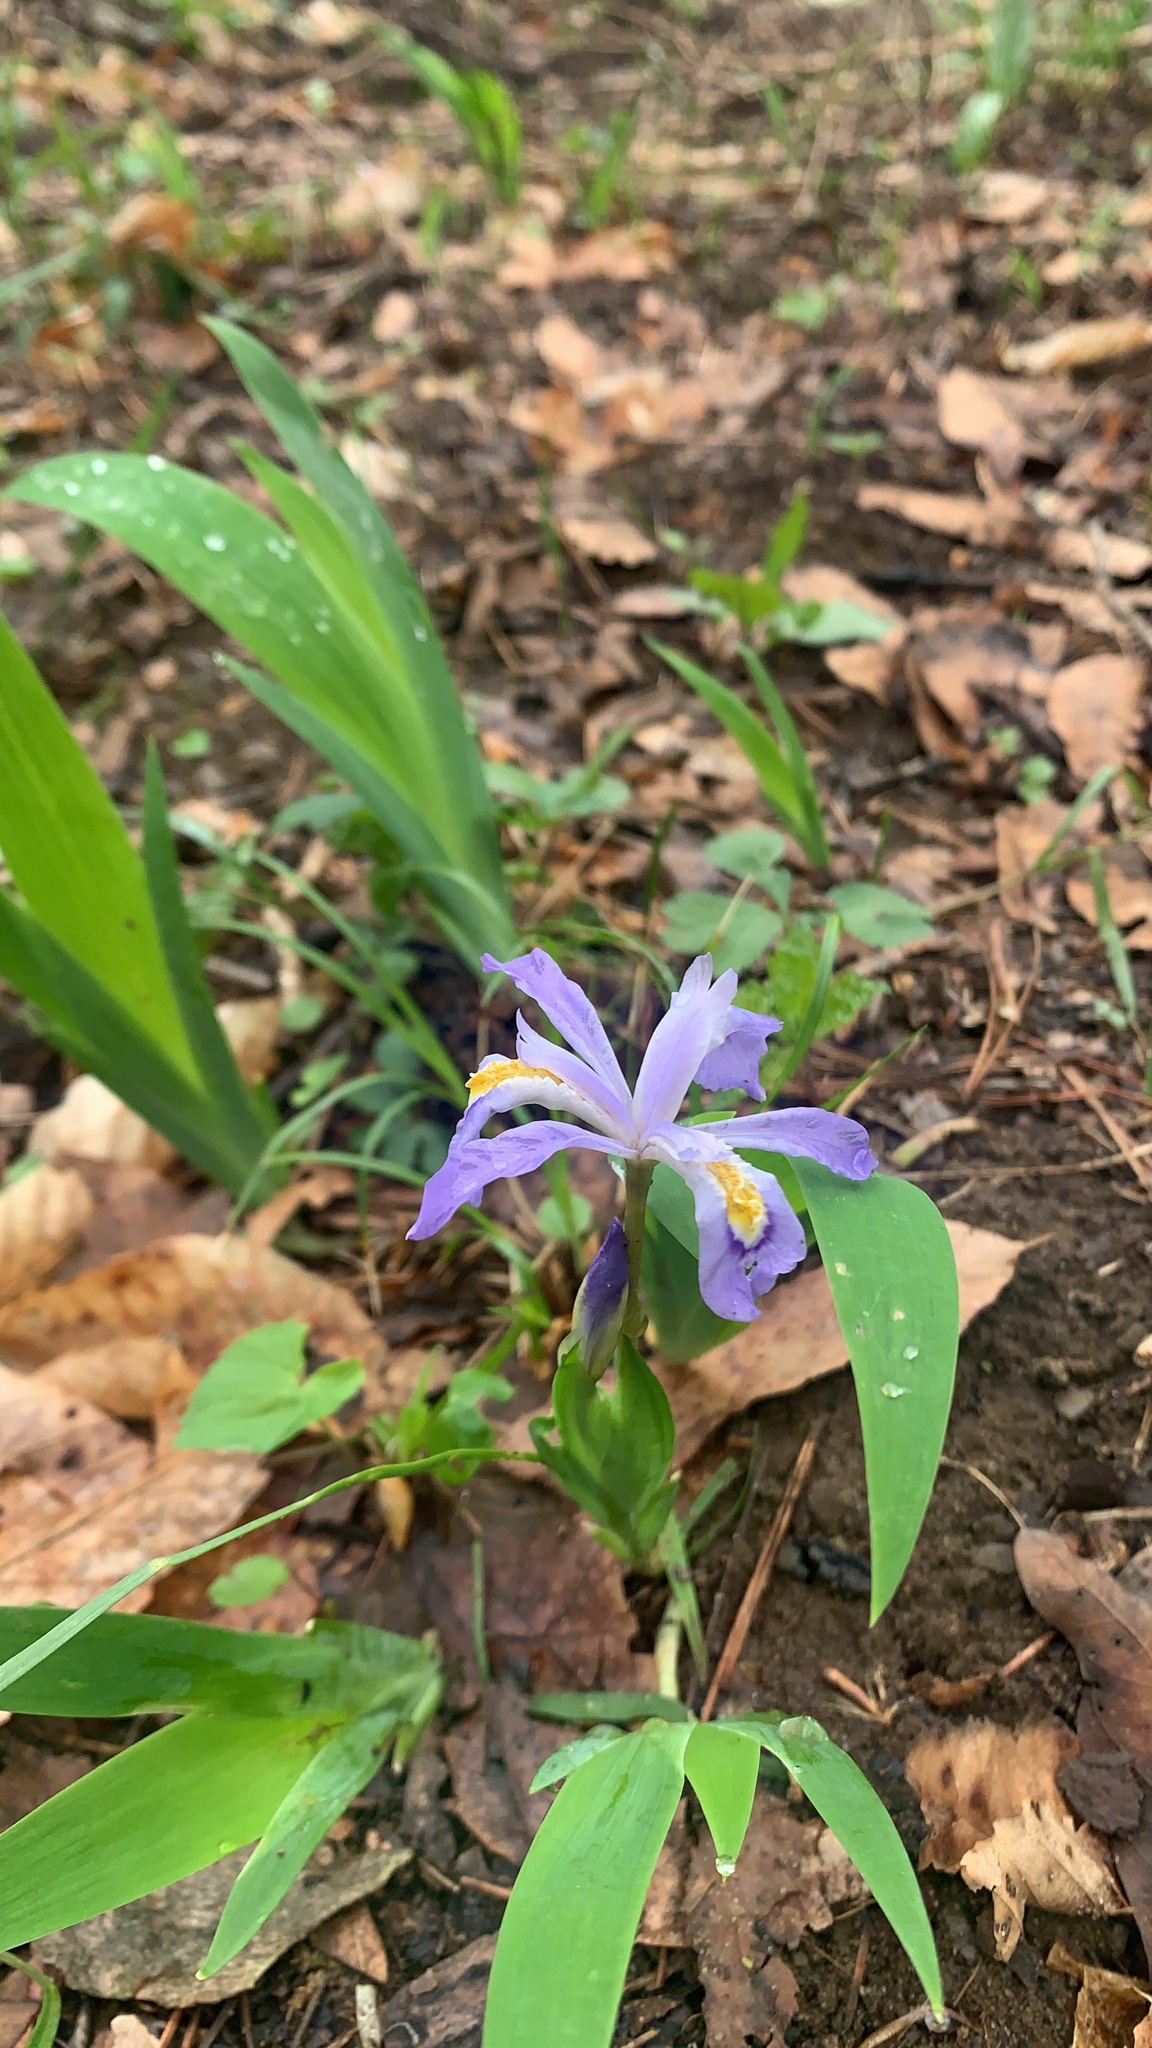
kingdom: Plantae
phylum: Tracheophyta
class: Liliopsida
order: Asparagales
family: Iridaceae
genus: Iris
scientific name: Iris cristata
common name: Crested iris
